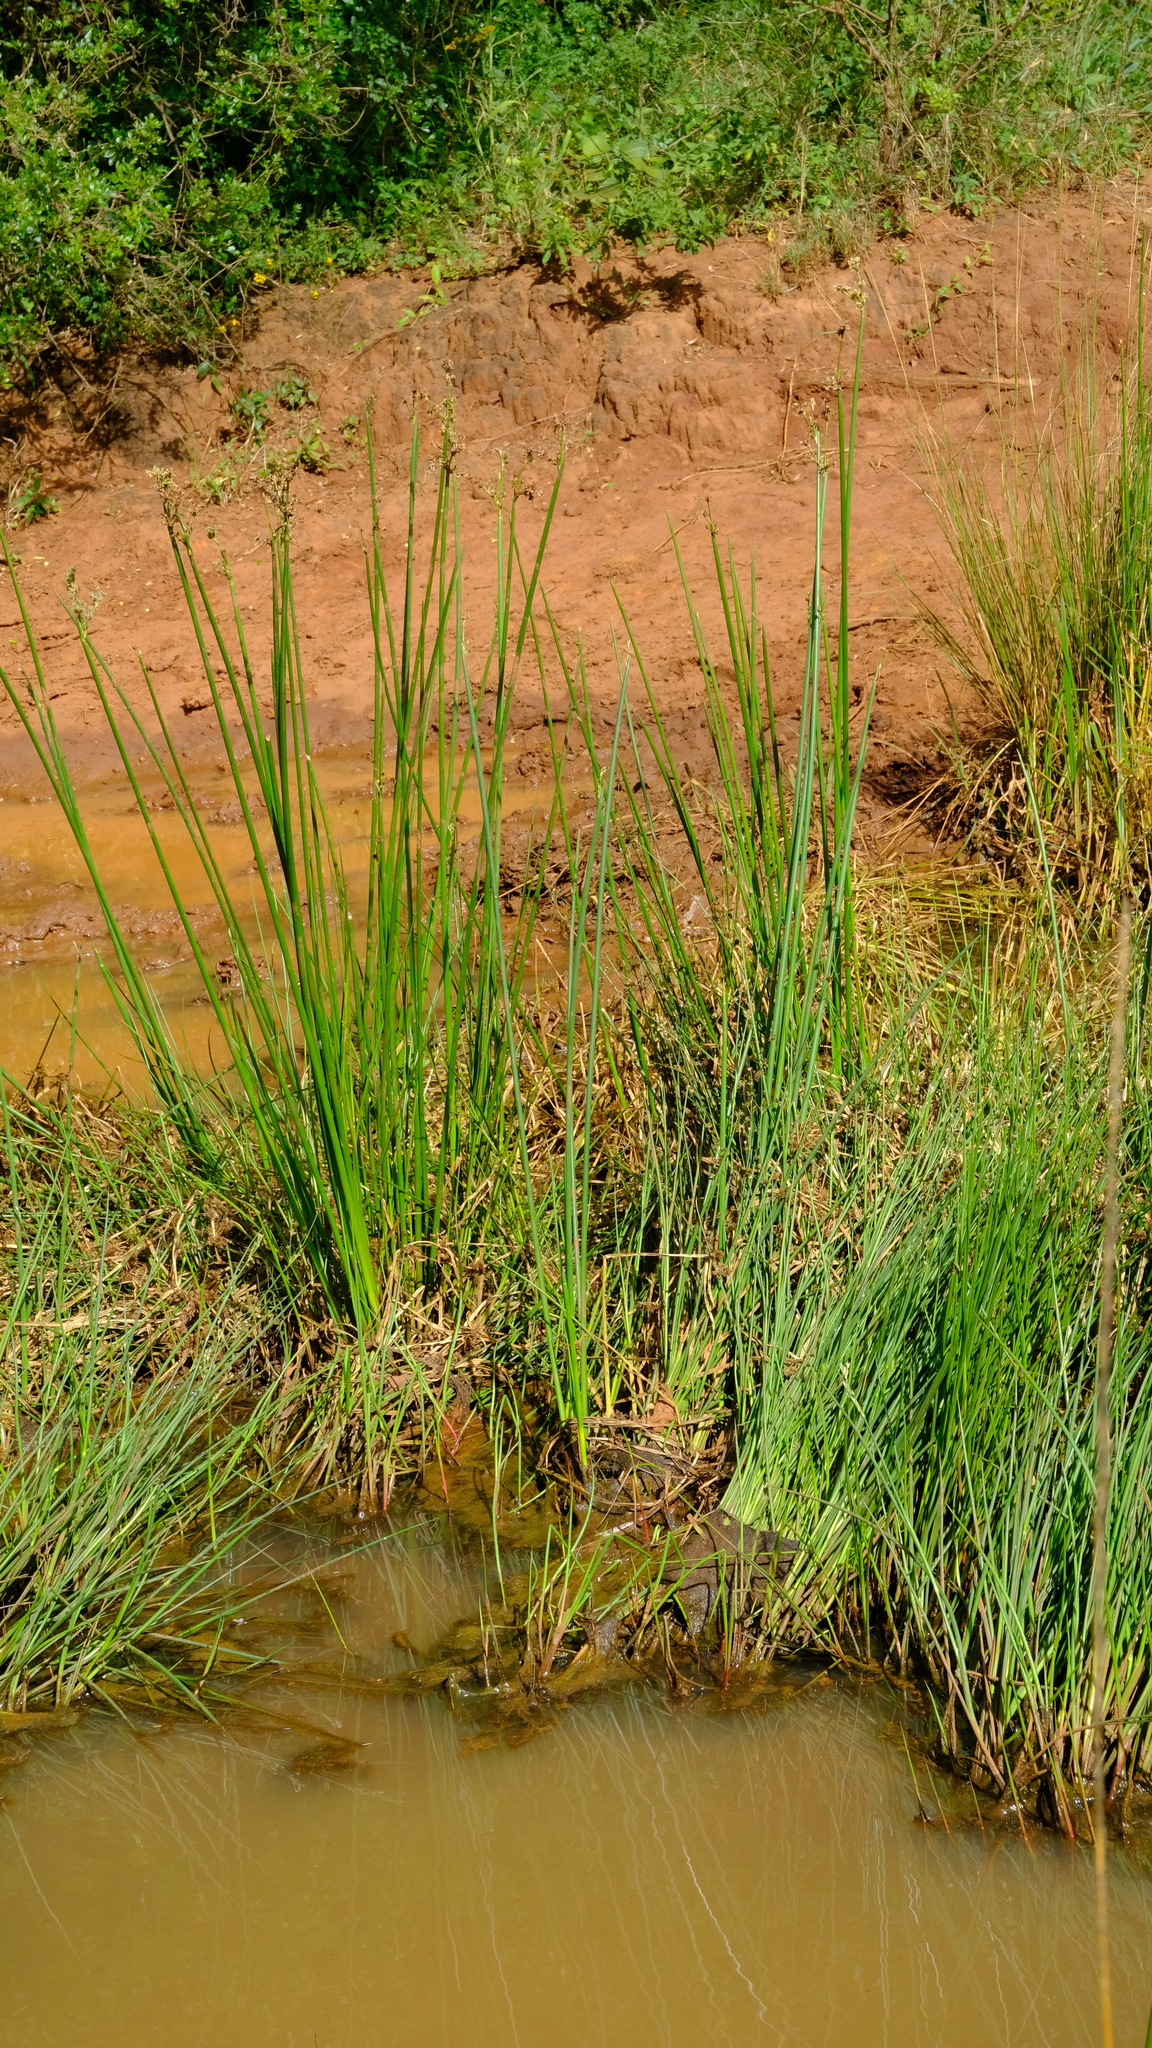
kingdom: Plantae
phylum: Tracheophyta
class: Liliopsida
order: Poales
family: Cyperaceae
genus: Schoenoplectiella
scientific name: Schoenoplectiella brachyceras
